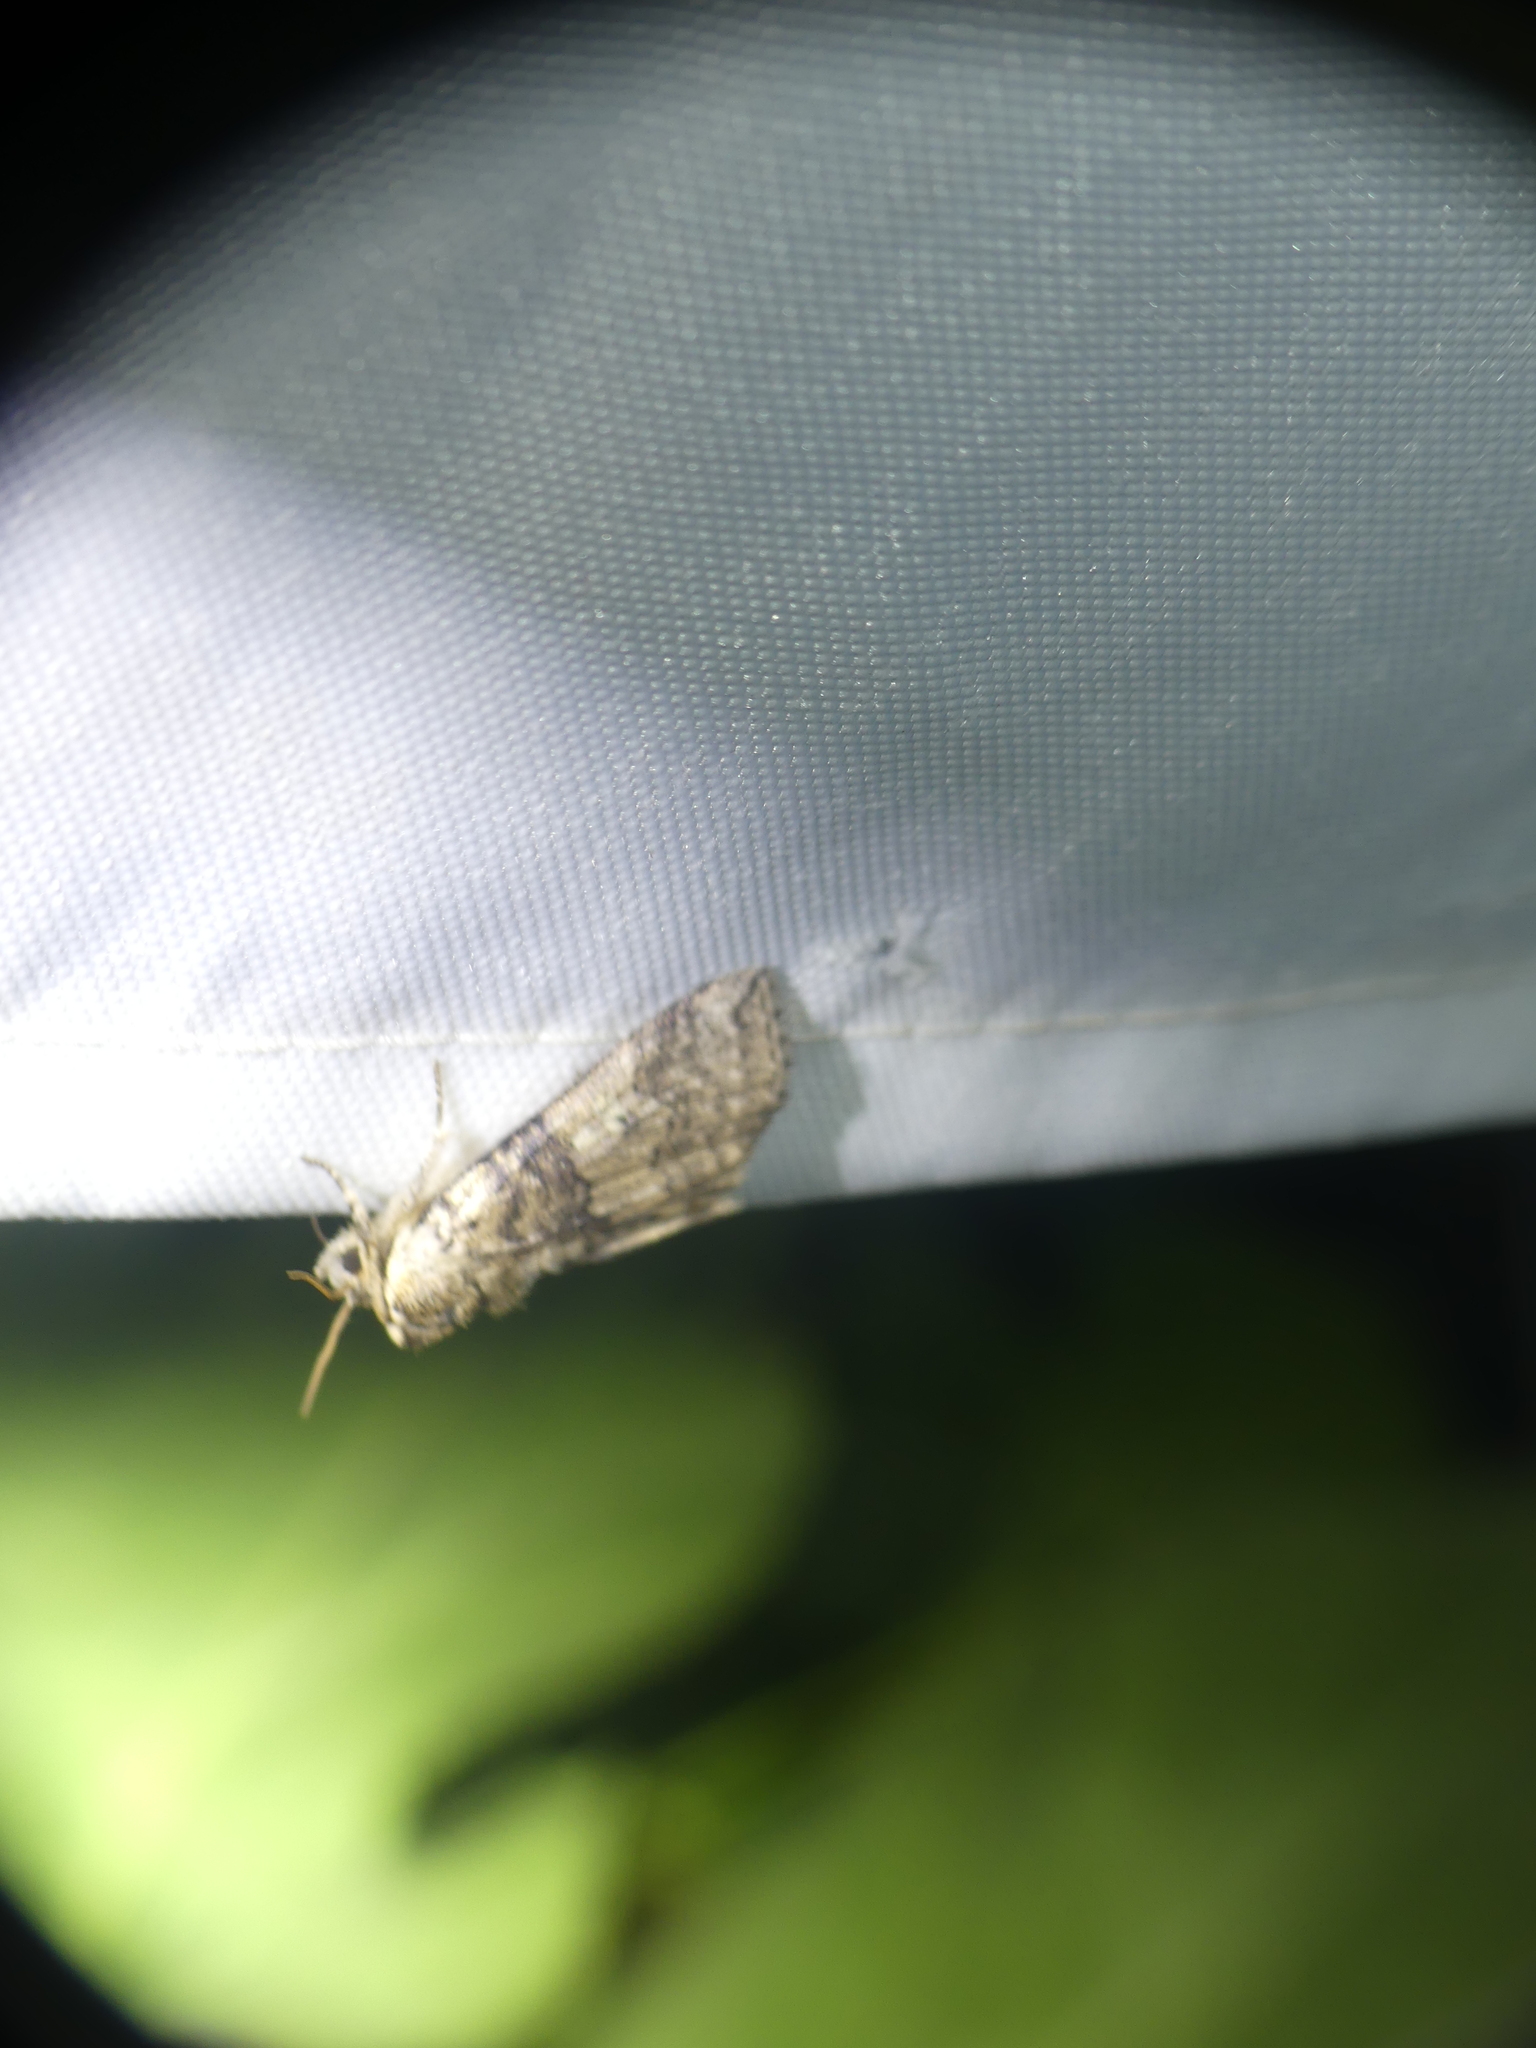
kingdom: Animalia
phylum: Arthropoda
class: Insecta
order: Lepidoptera
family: Drepanidae
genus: Tethea
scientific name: Tethea or
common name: Poplar lutestring
